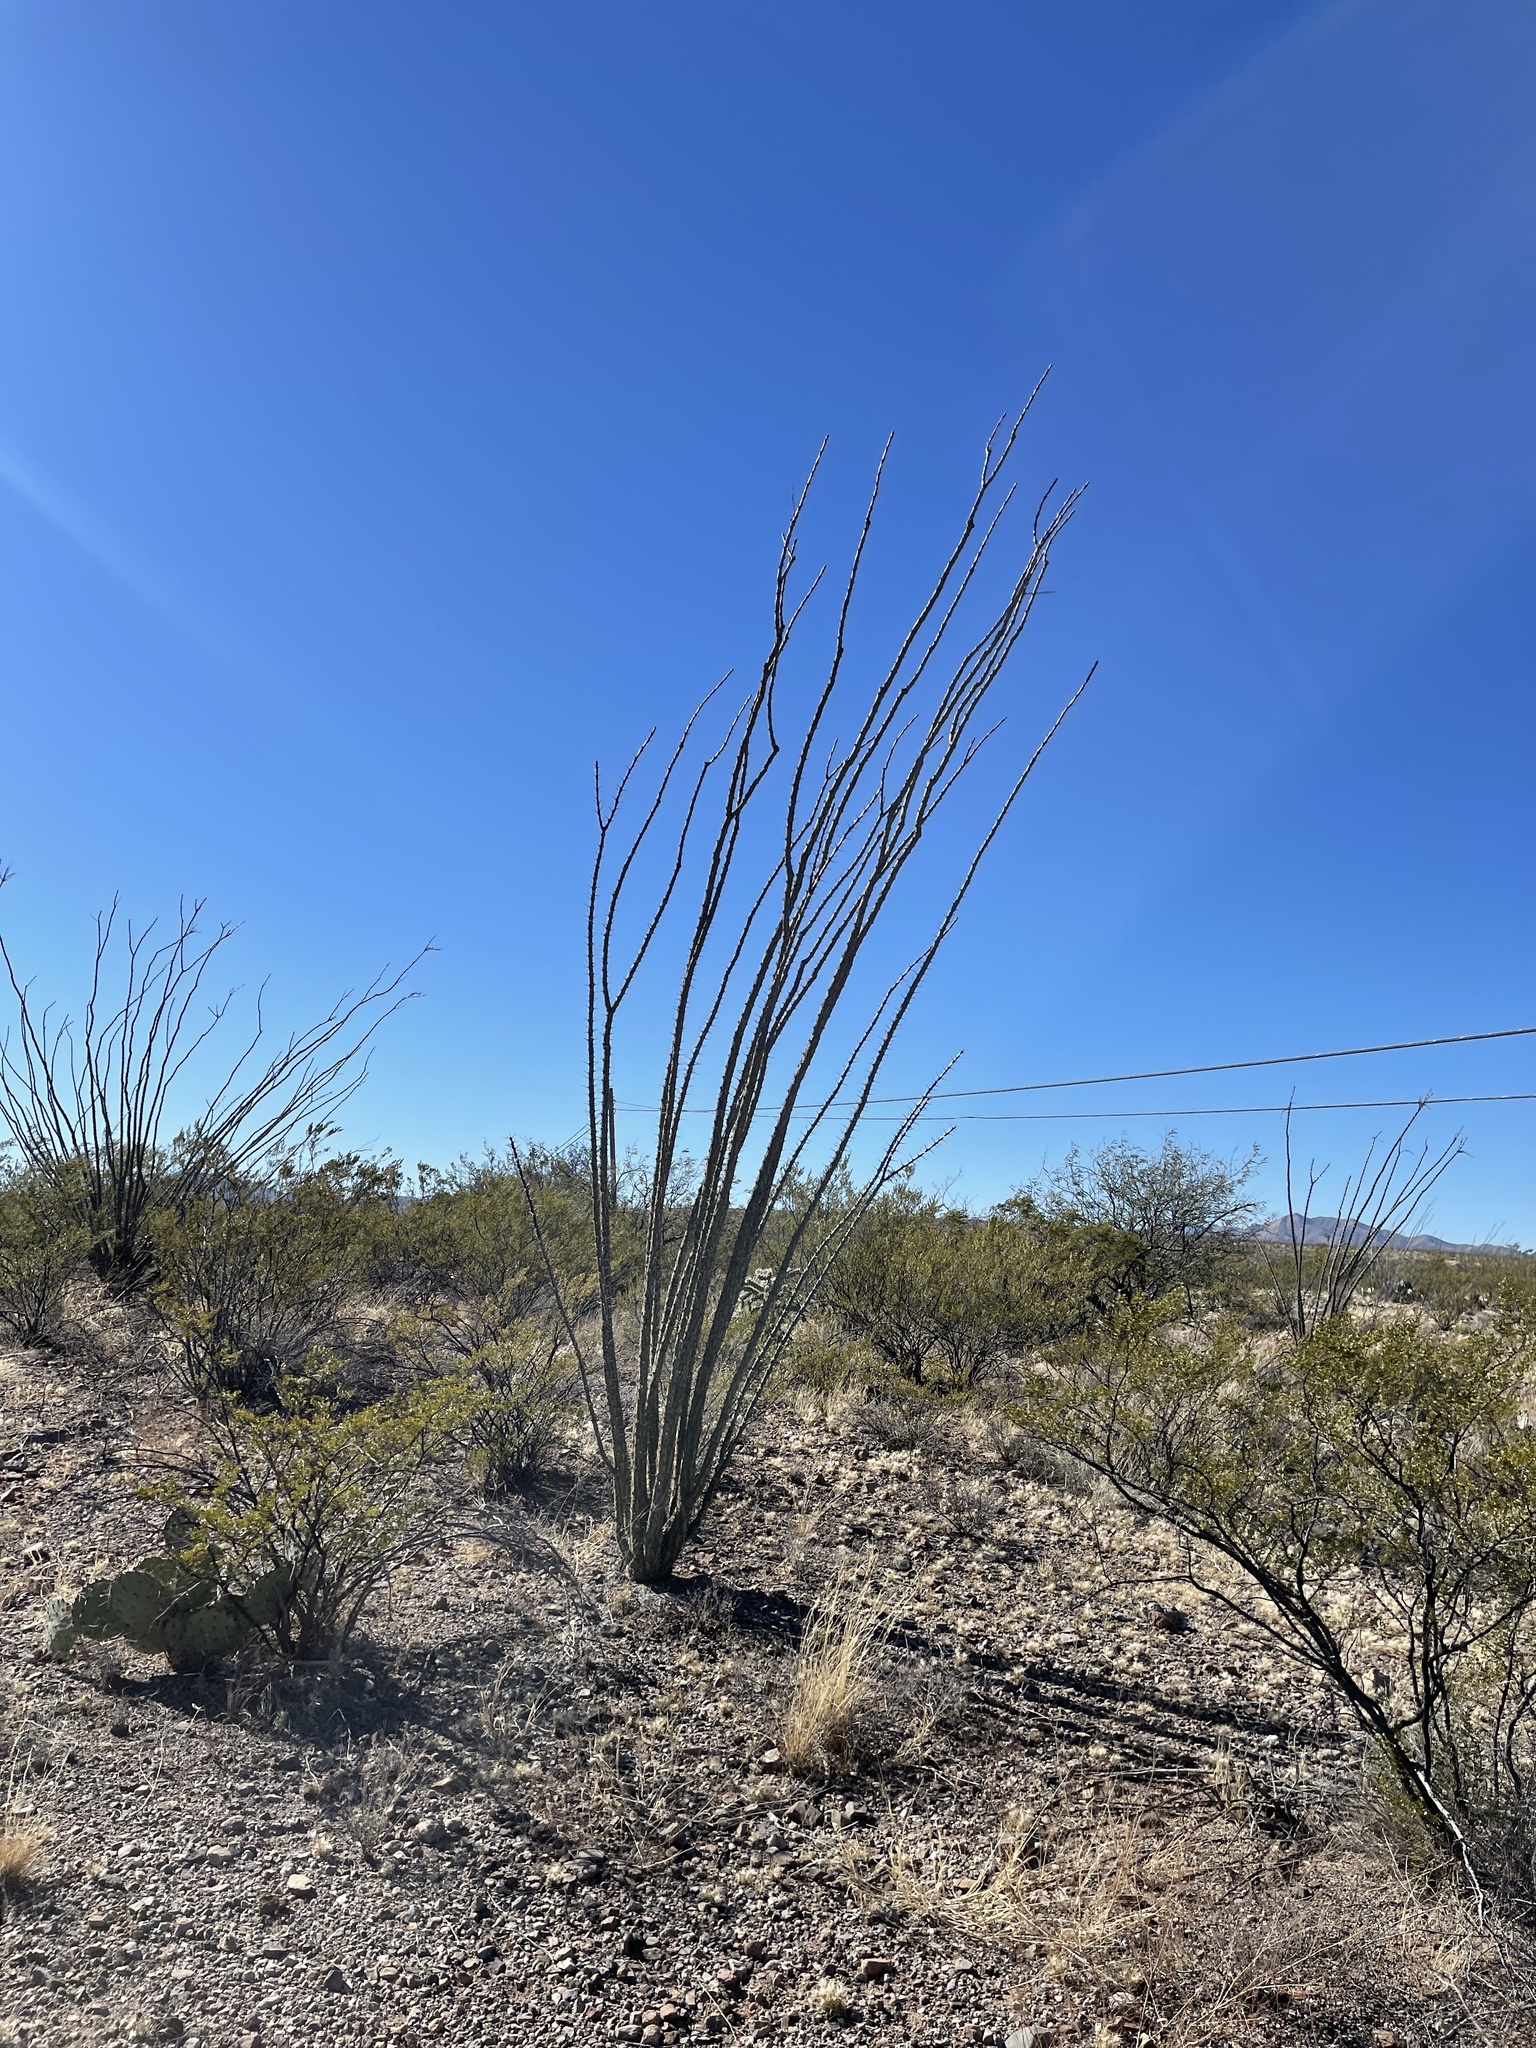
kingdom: Plantae
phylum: Tracheophyta
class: Magnoliopsida
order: Ericales
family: Fouquieriaceae
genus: Fouquieria
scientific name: Fouquieria splendens
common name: Vine-cactus
